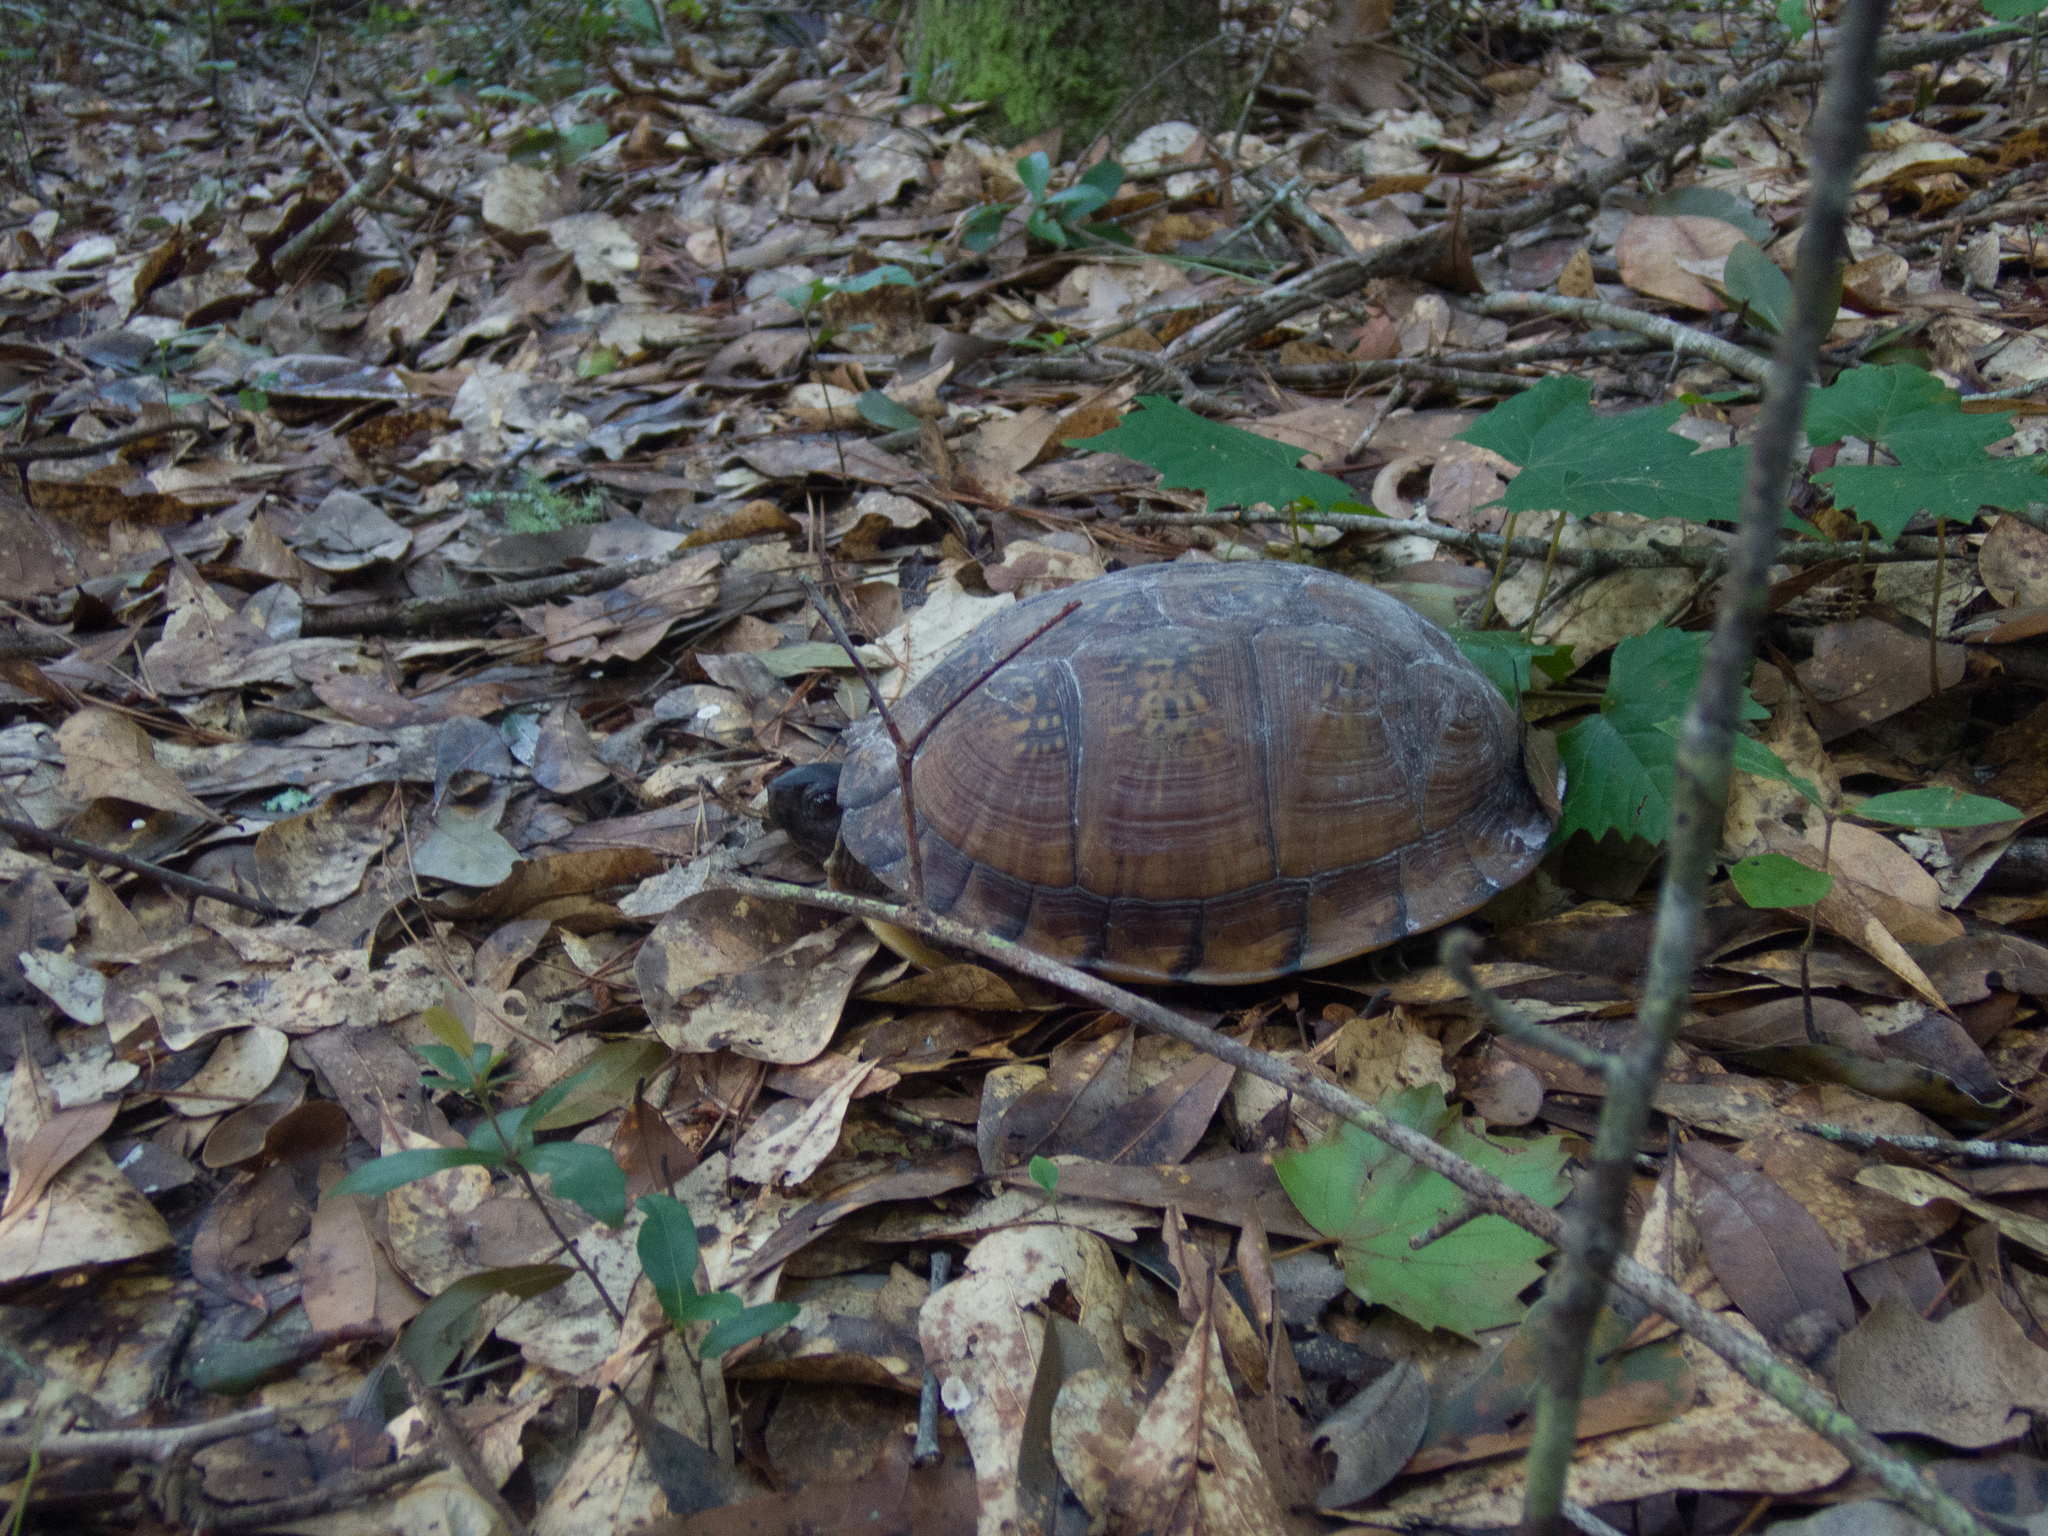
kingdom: Animalia
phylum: Chordata
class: Testudines
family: Emydidae
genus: Terrapene
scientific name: Terrapene carolina
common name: Common box turtle
